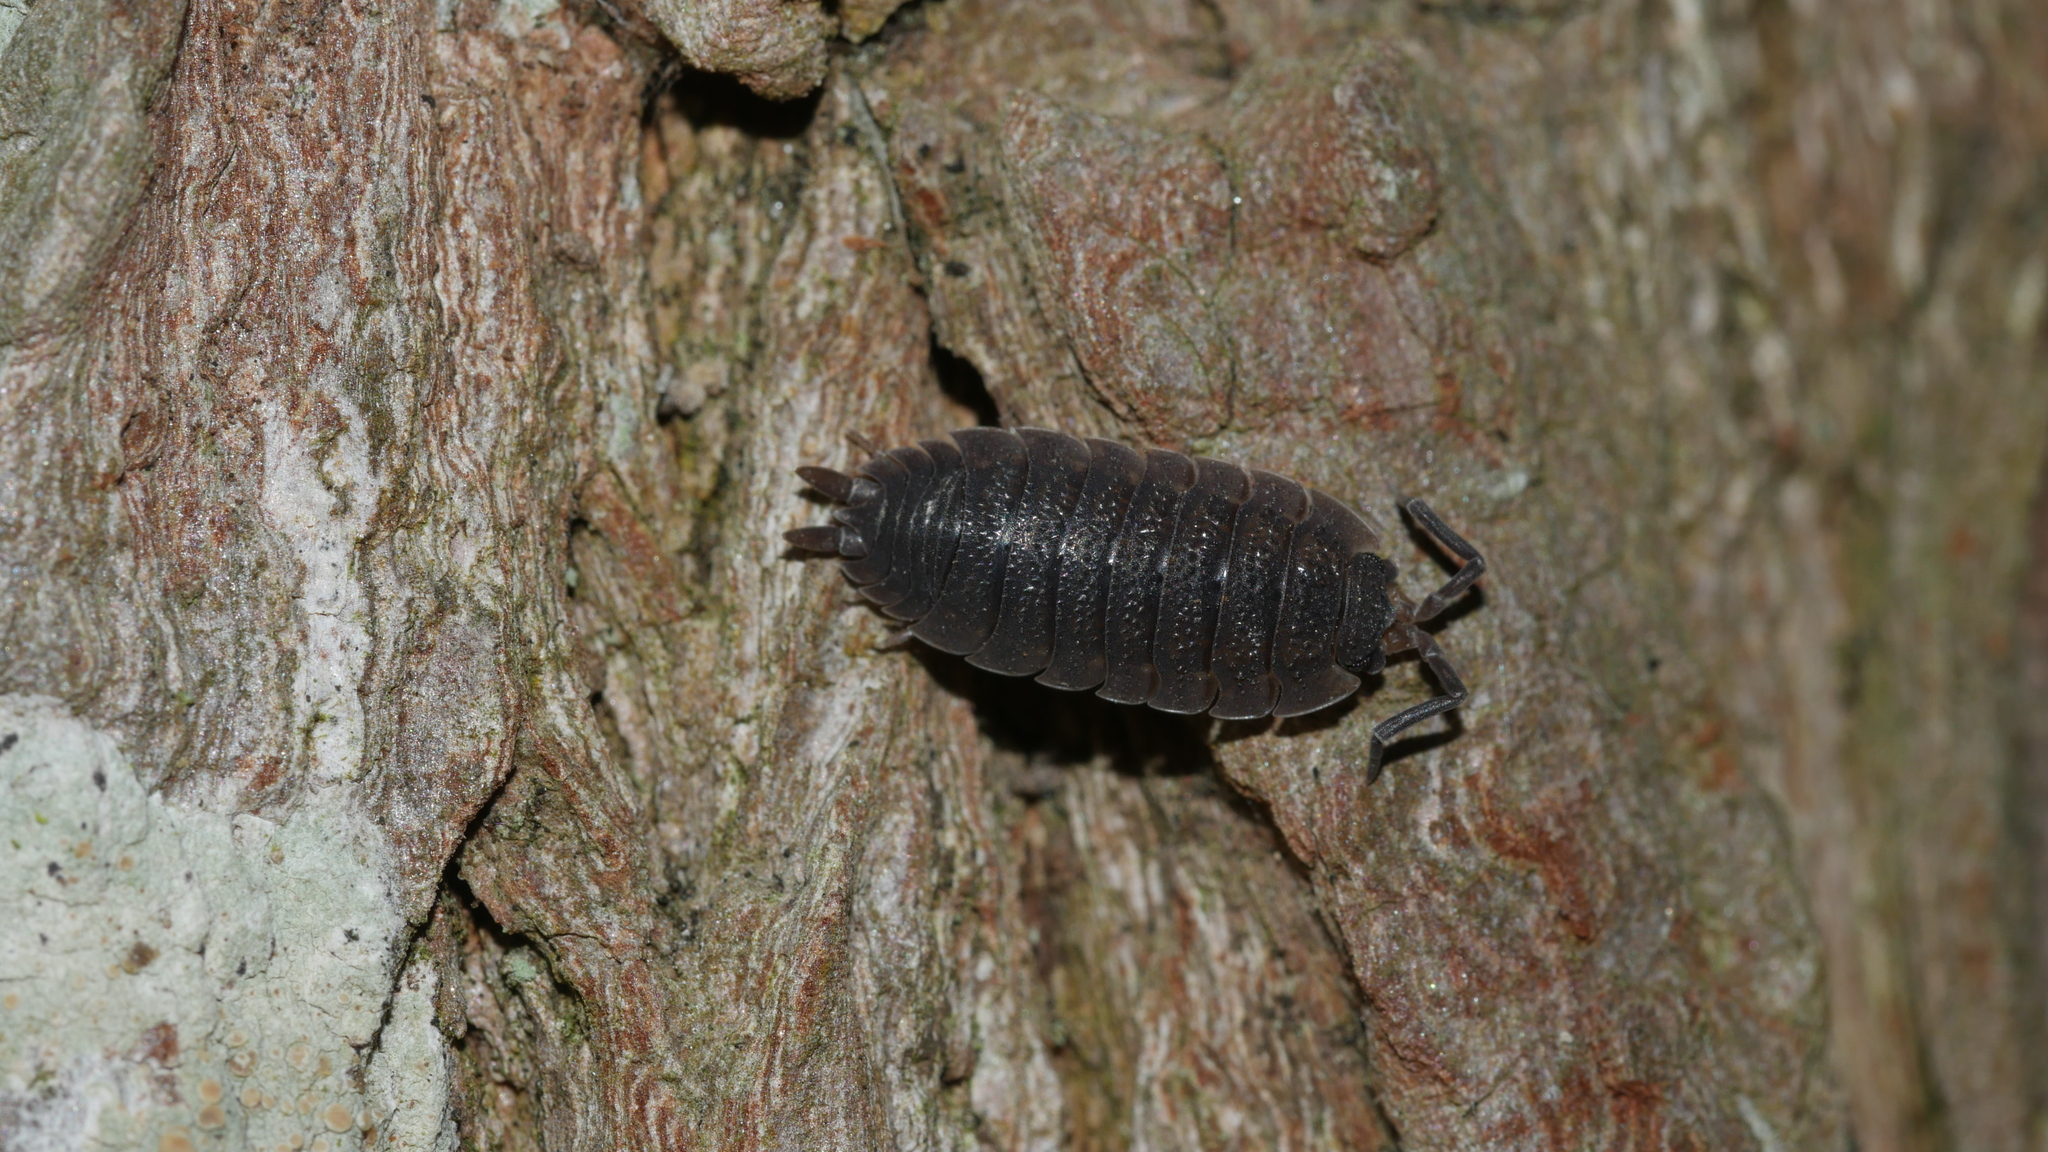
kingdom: Animalia
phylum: Arthropoda
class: Malacostraca
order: Isopoda
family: Porcellionidae
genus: Porcellio
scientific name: Porcellio scaber
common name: Common rough woodlouse
